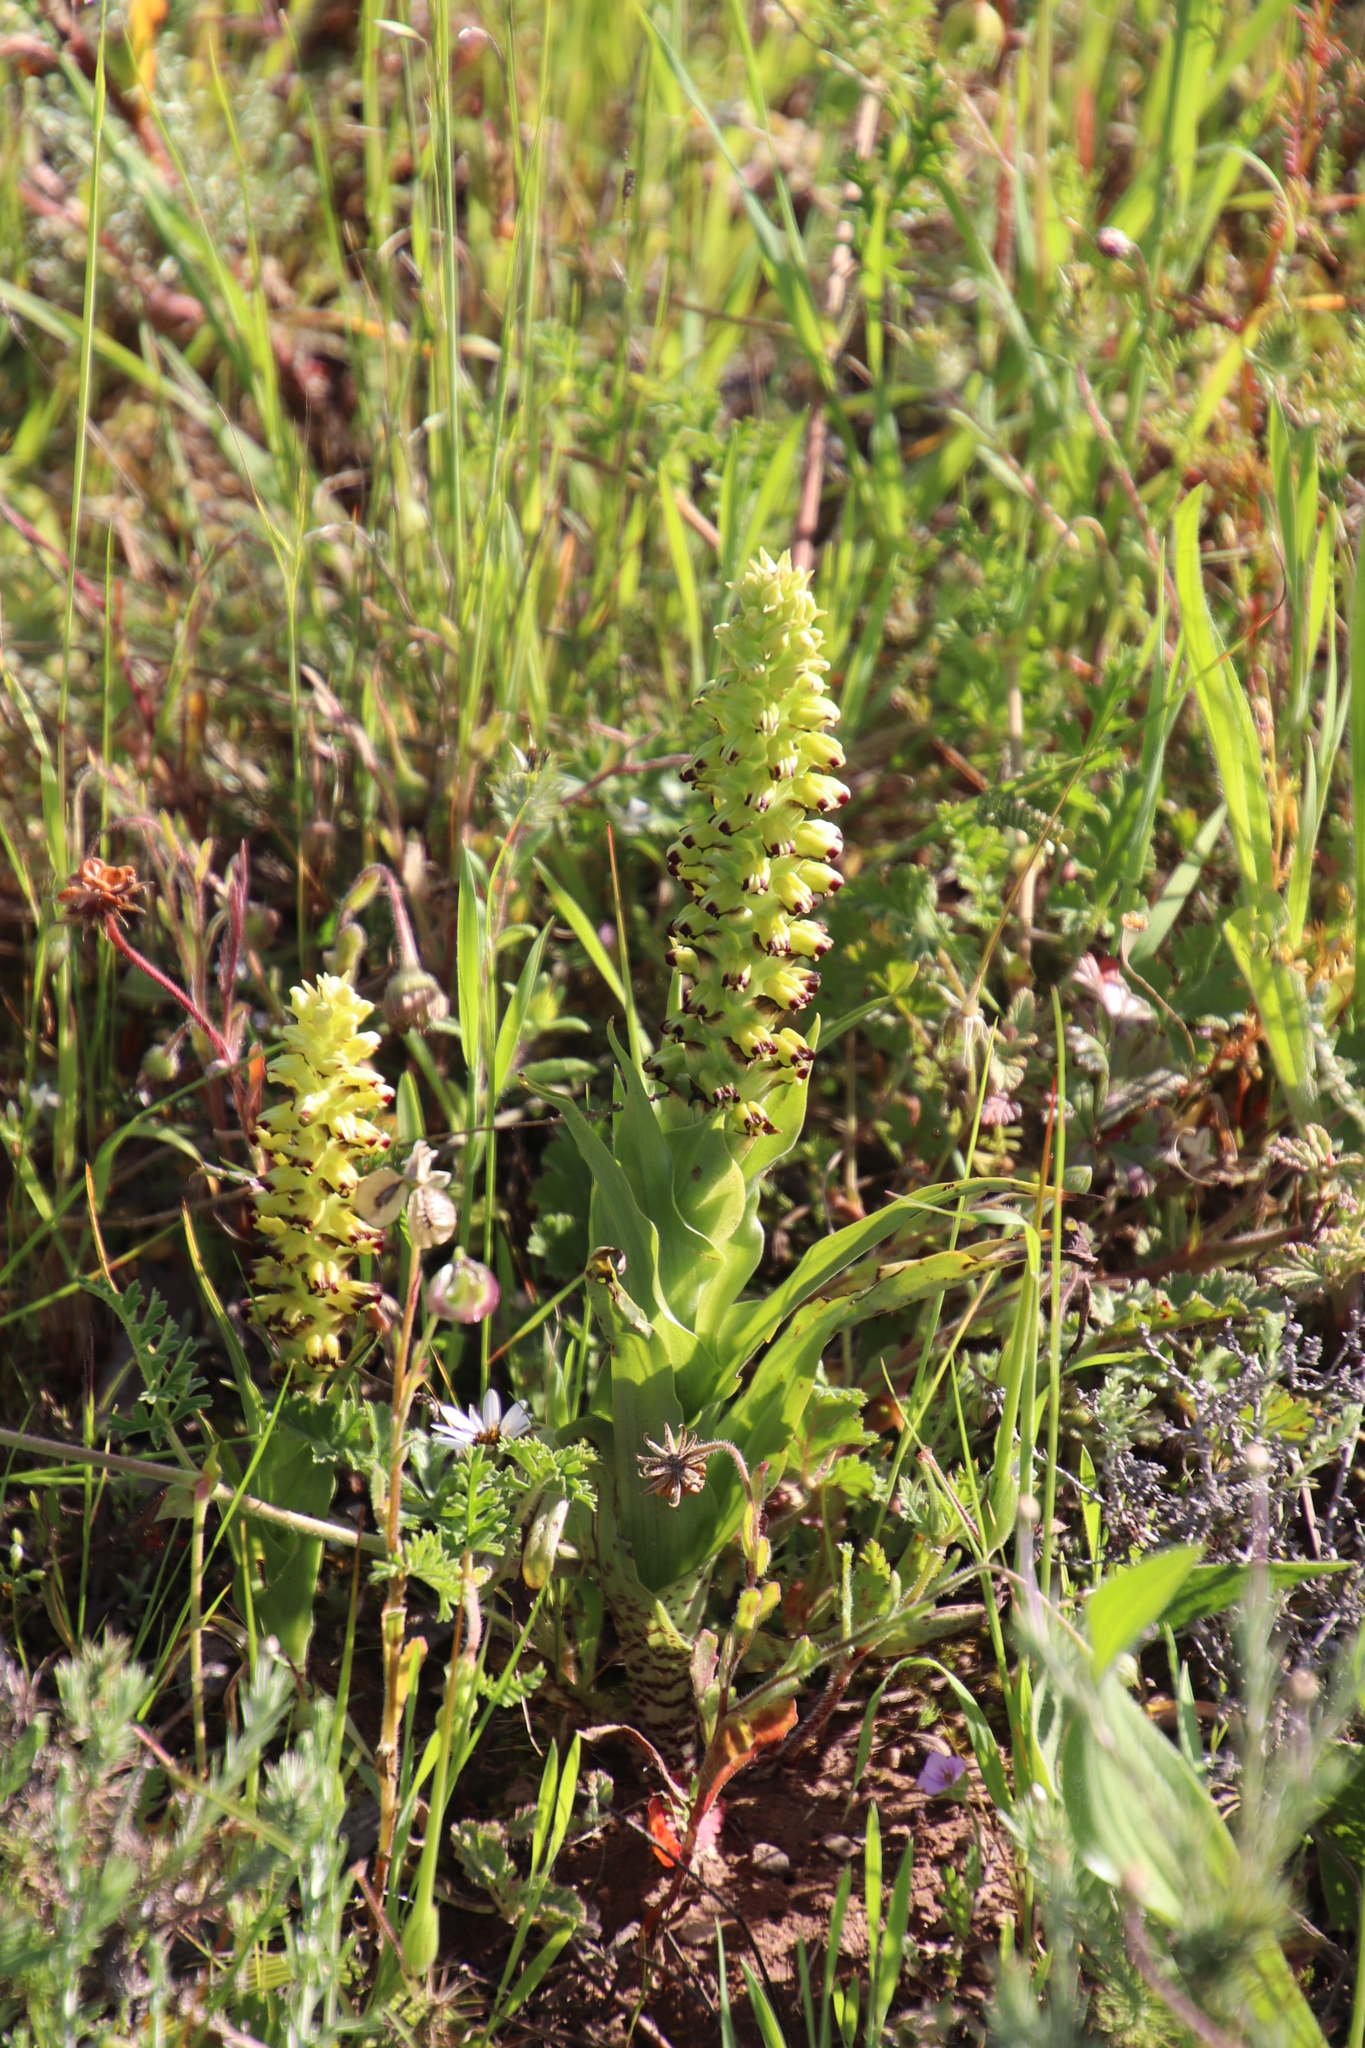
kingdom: Plantae
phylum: Tracheophyta
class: Liliopsida
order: Asparagales
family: Orchidaceae
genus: Corycium
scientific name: Corycium orobanchoides
